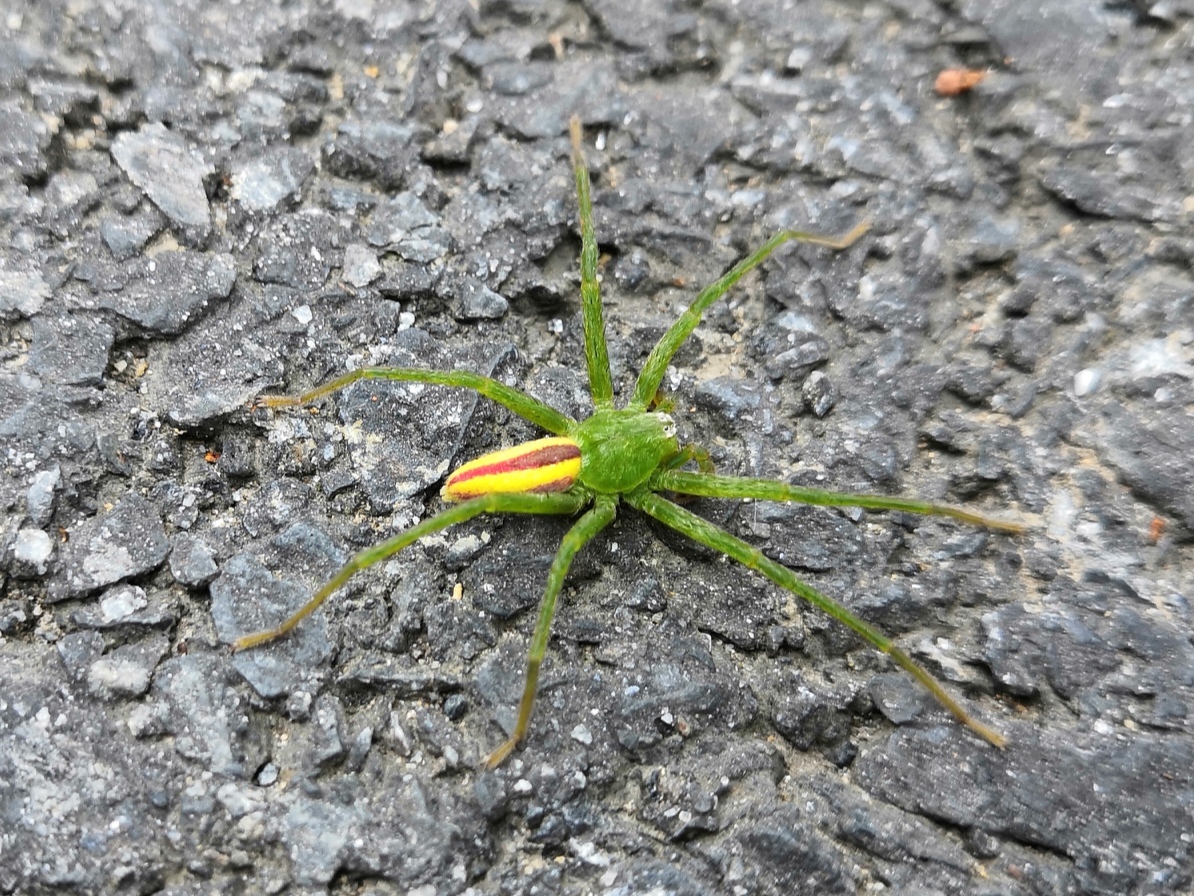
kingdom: Animalia
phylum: Arthropoda
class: Arachnida
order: Araneae
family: Sparassidae
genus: Micrommata
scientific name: Micrommata virescens
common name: Green spider
